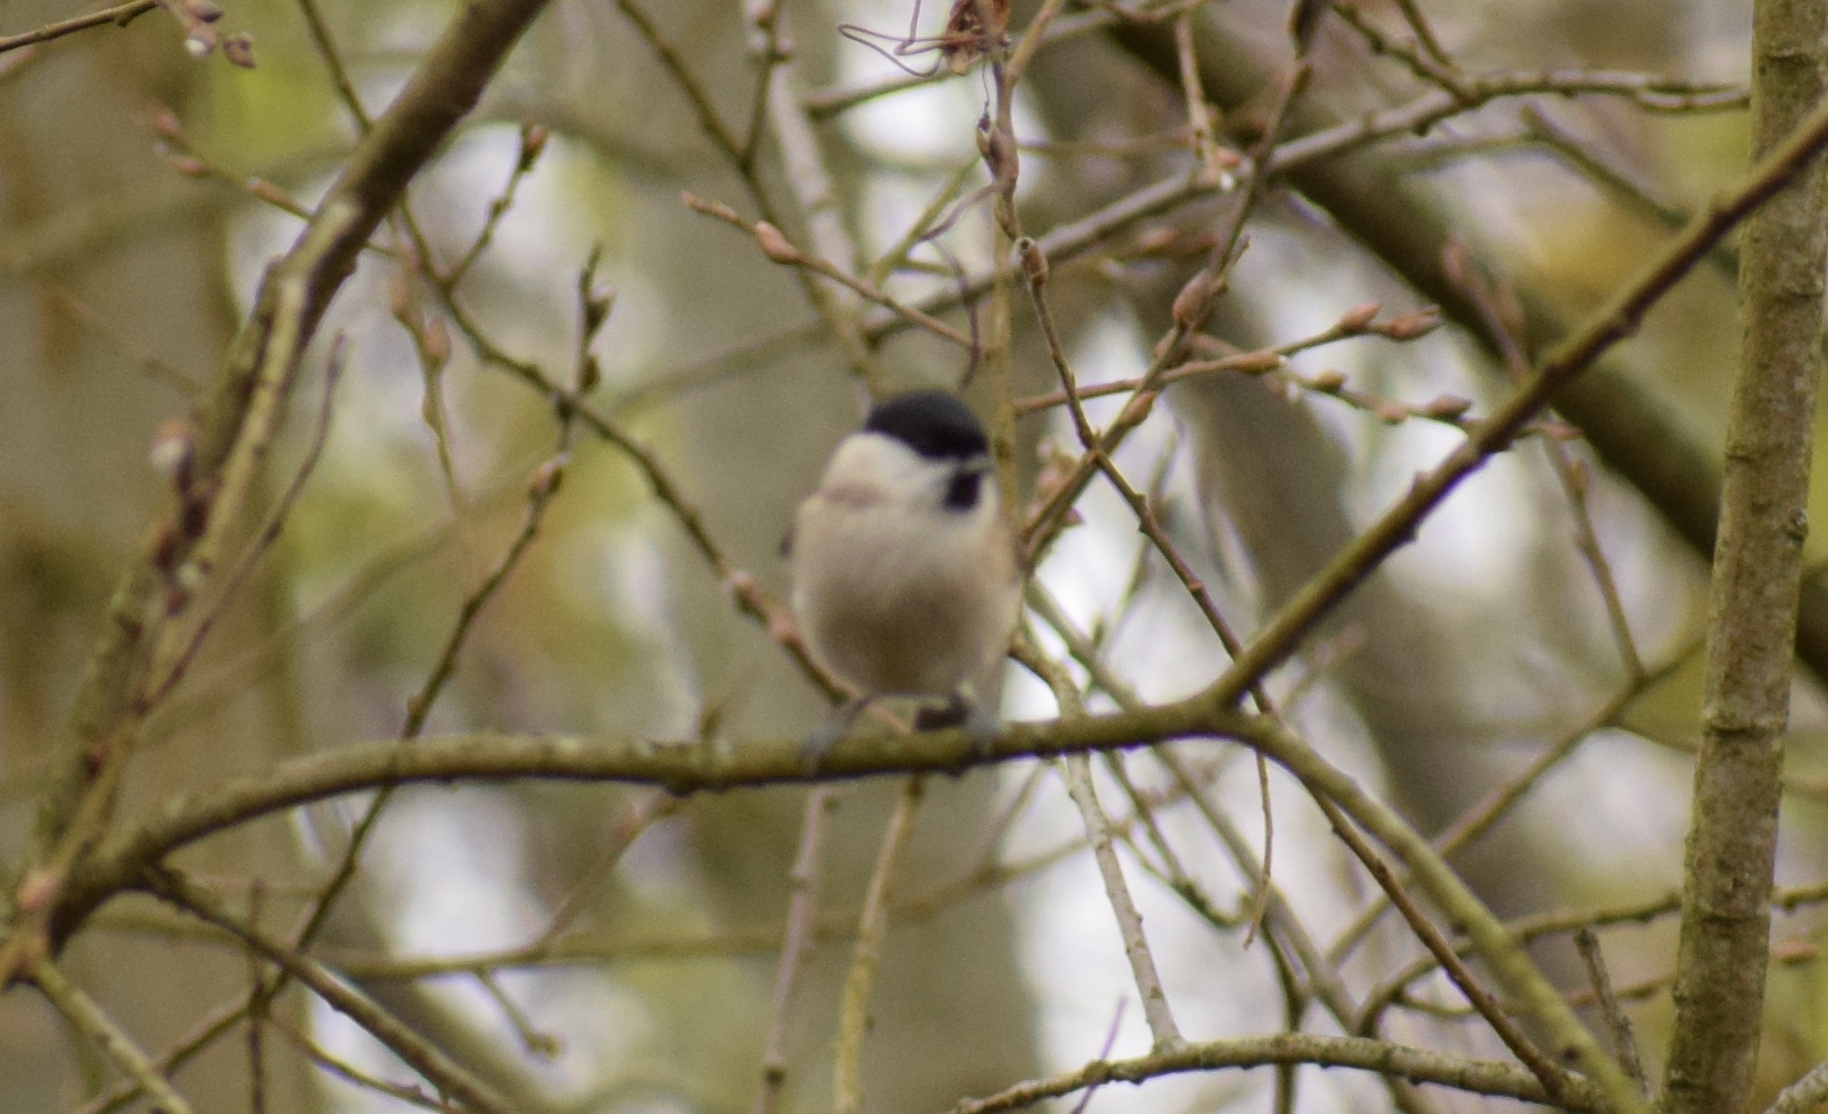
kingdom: Animalia
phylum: Chordata
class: Aves
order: Passeriformes
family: Paridae
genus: Poecile
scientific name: Poecile palustris
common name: Marsh tit
